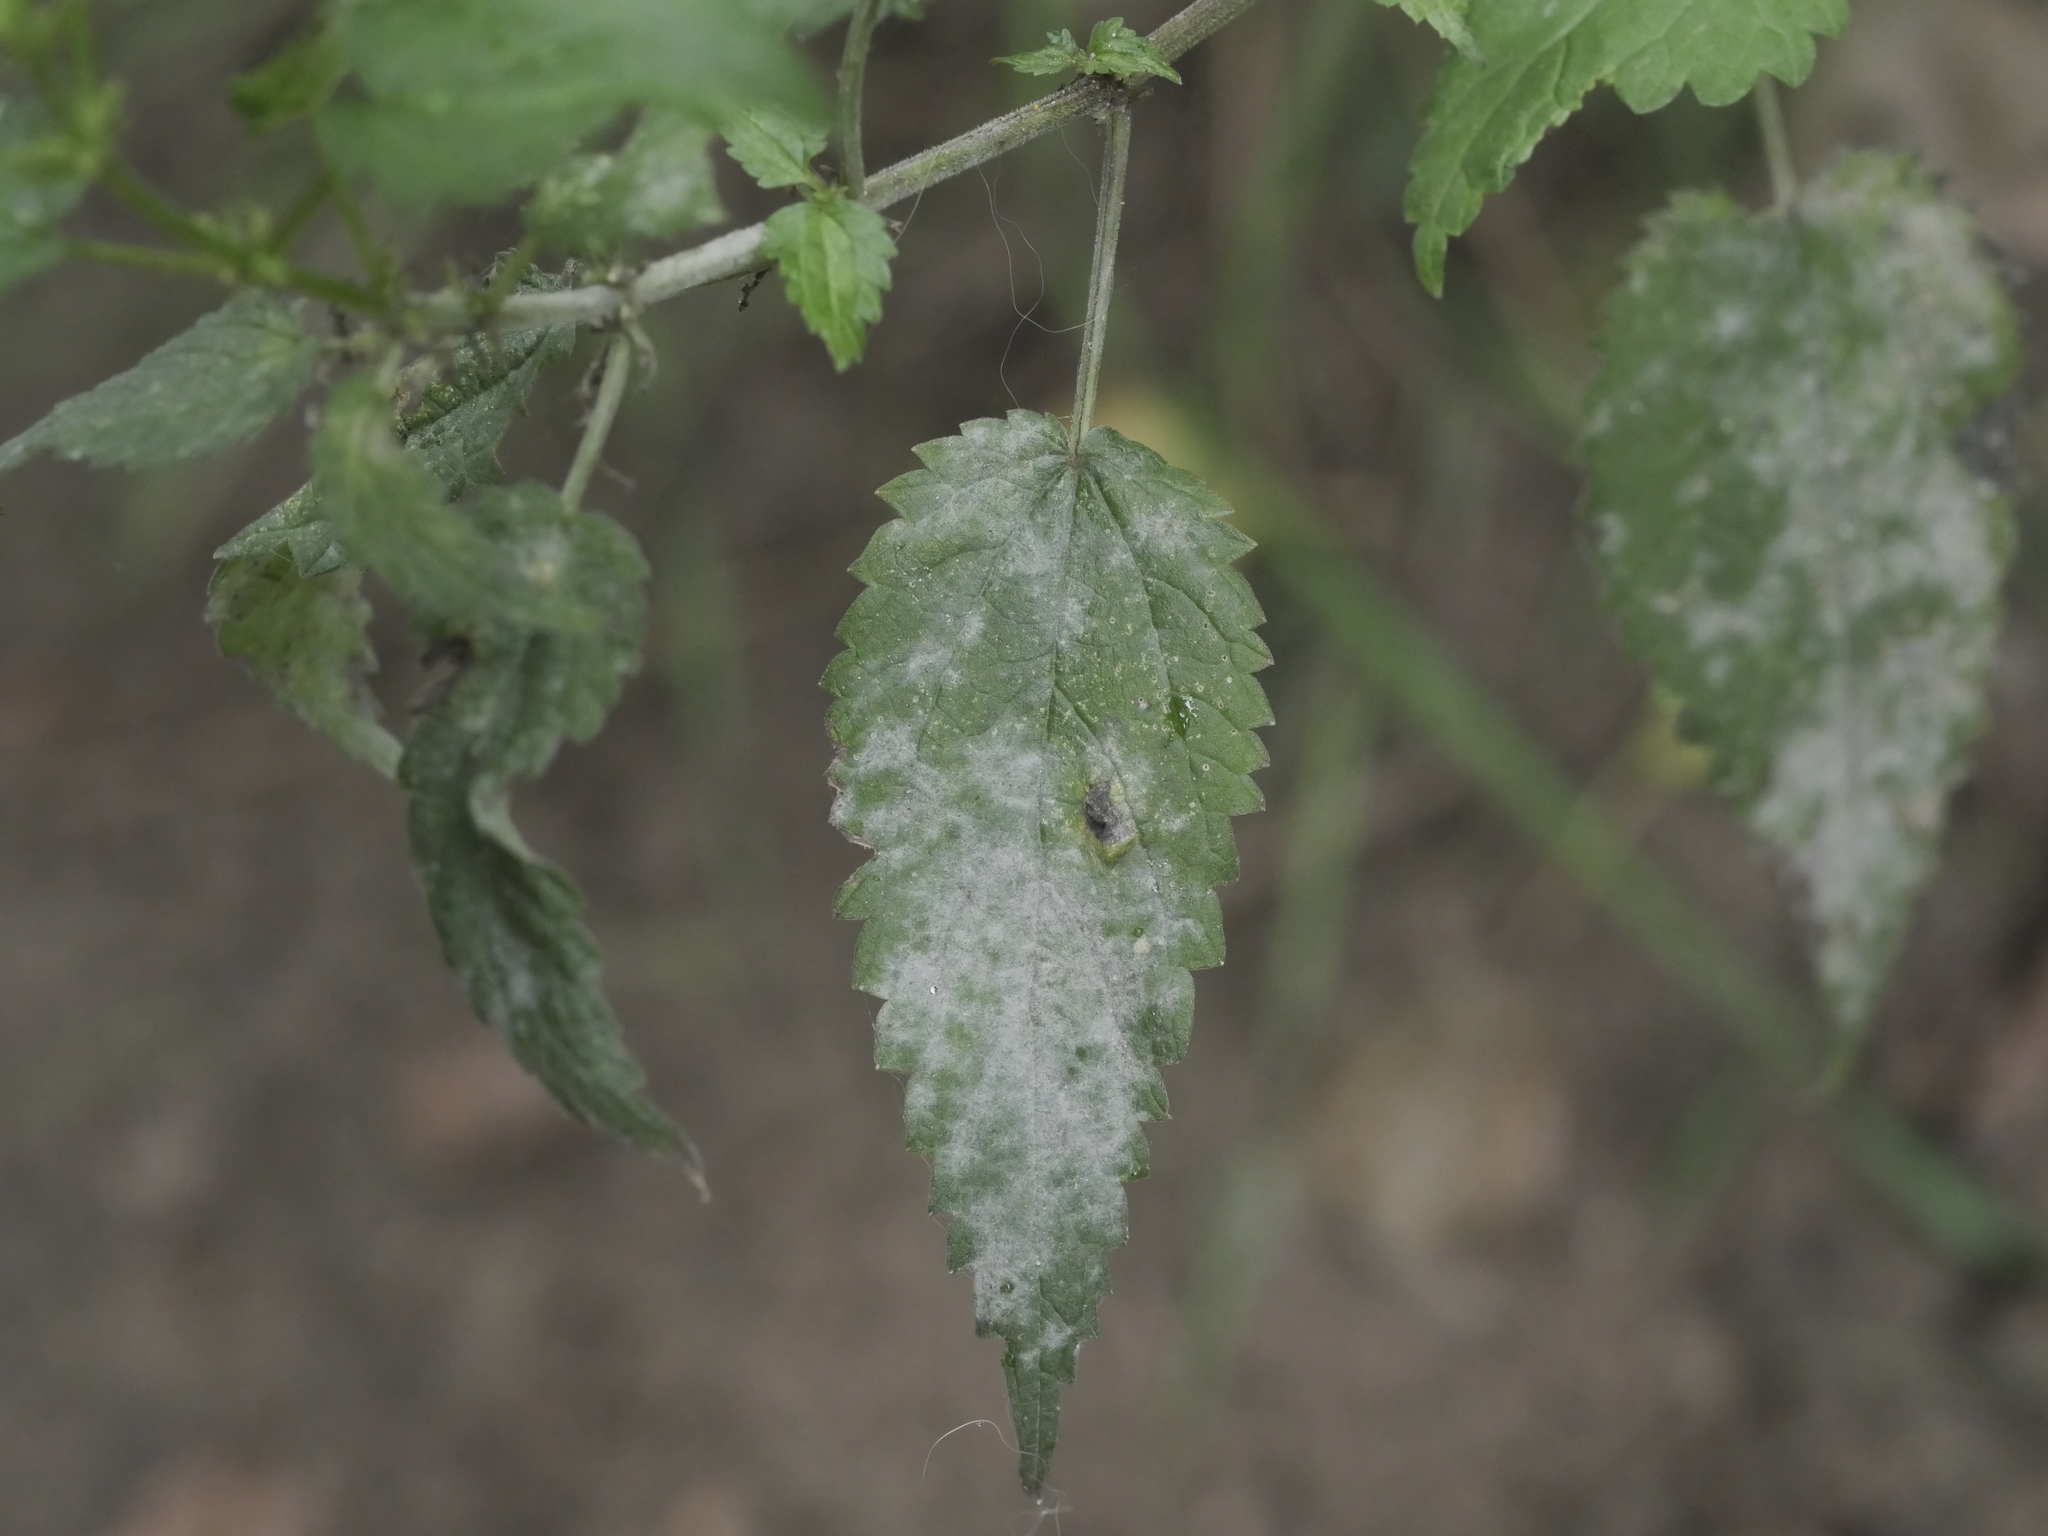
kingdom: Fungi
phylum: Ascomycota
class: Leotiomycetes
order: Helotiales
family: Erysiphaceae
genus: Erysiphe
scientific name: Erysiphe urticae
